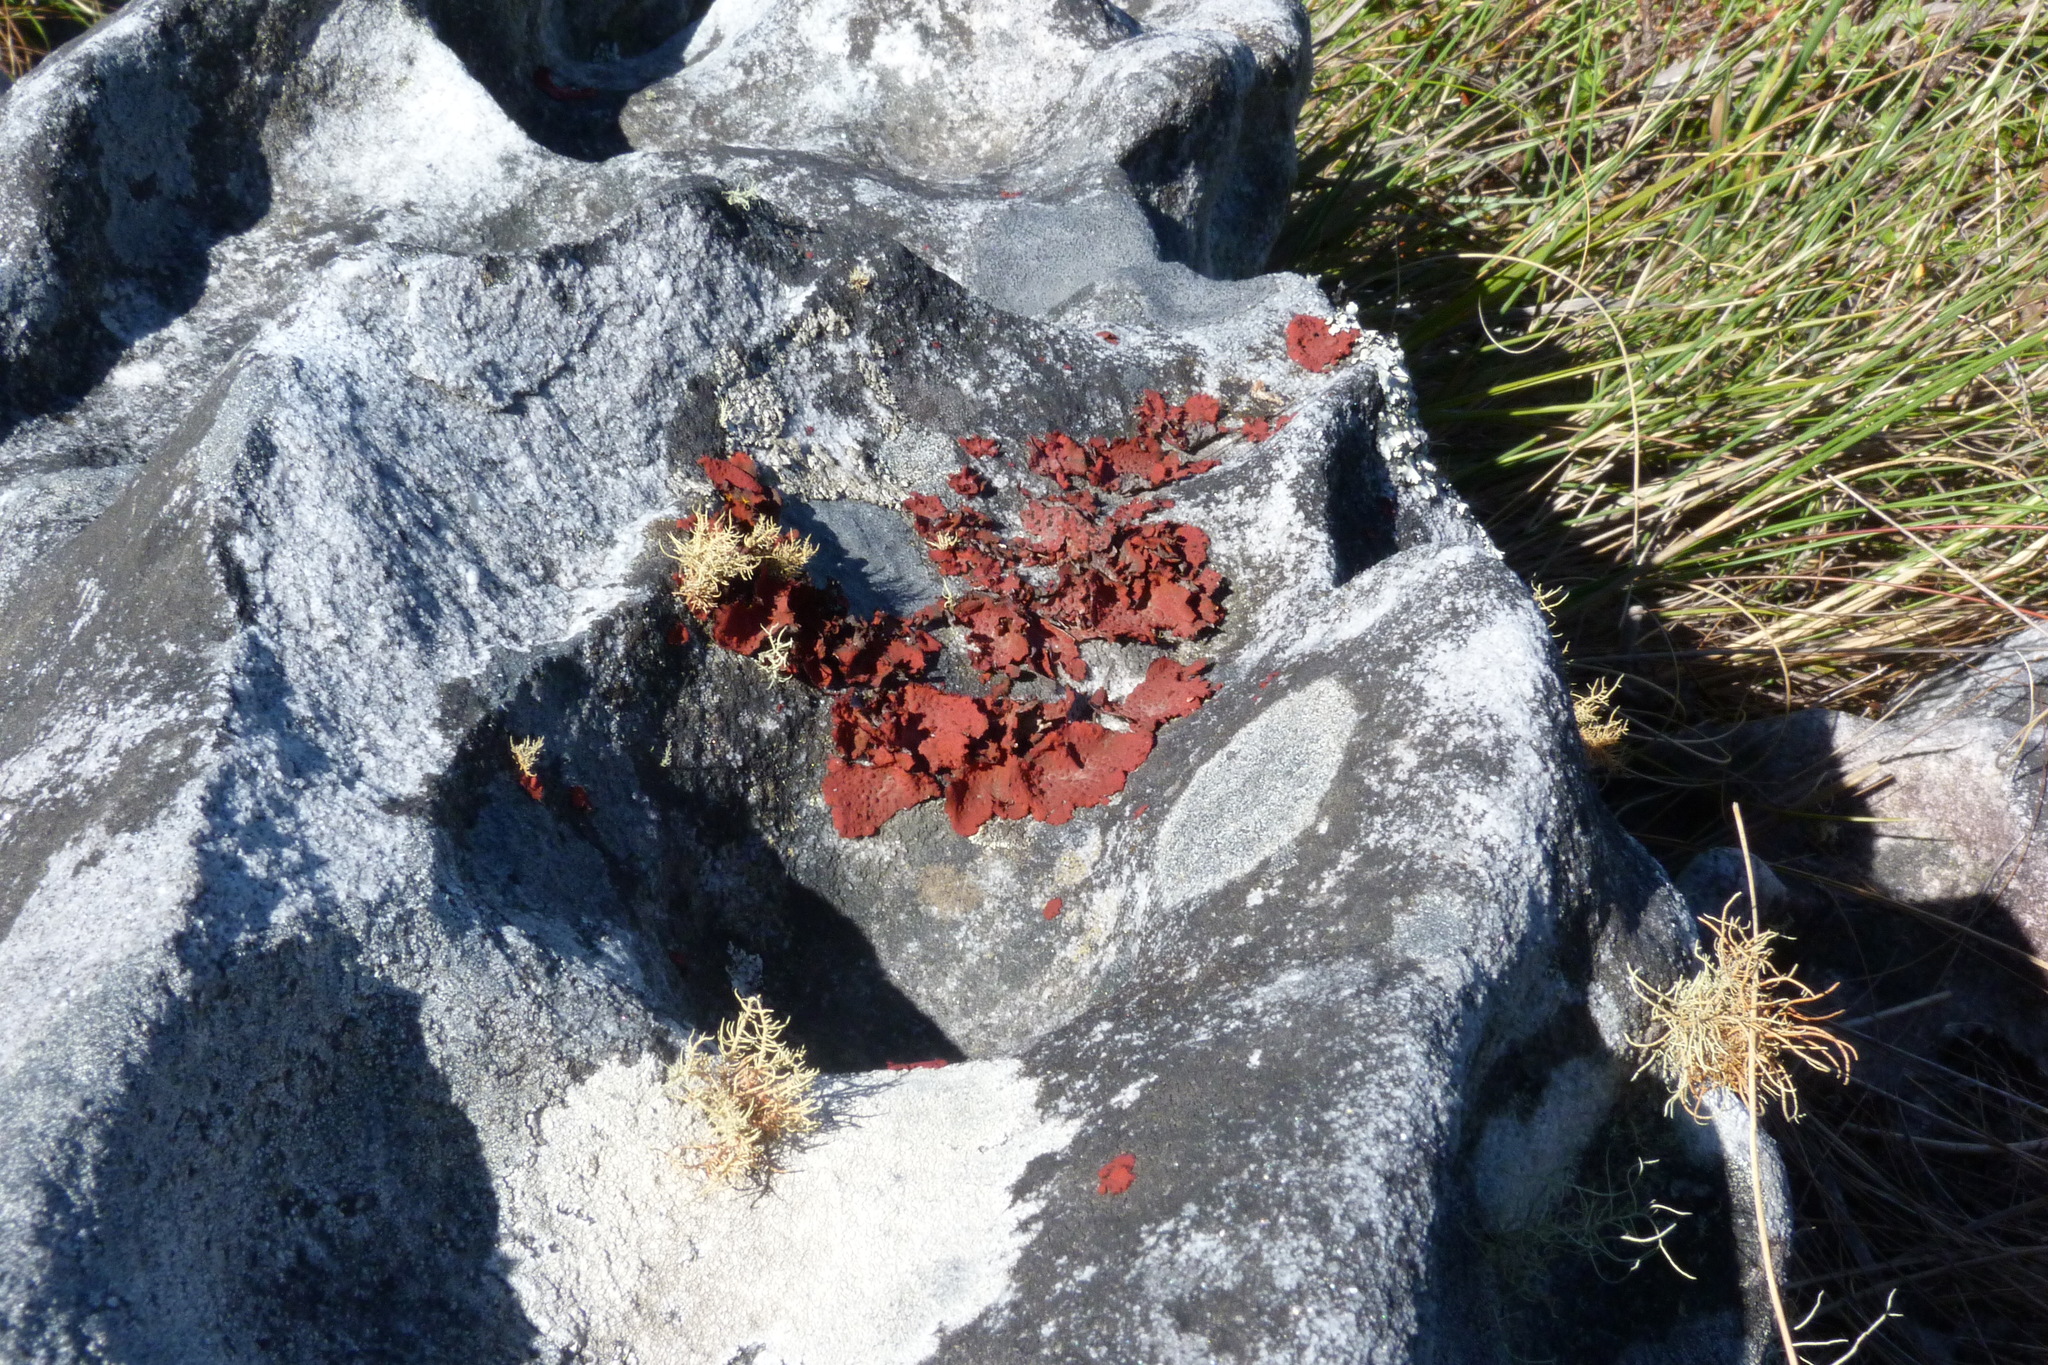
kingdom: Fungi
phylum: Ascomycota
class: Lecanoromycetes
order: Umbilicariales
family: Umbilicariaceae
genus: Lasallia
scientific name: Lasallia rubiginosa
